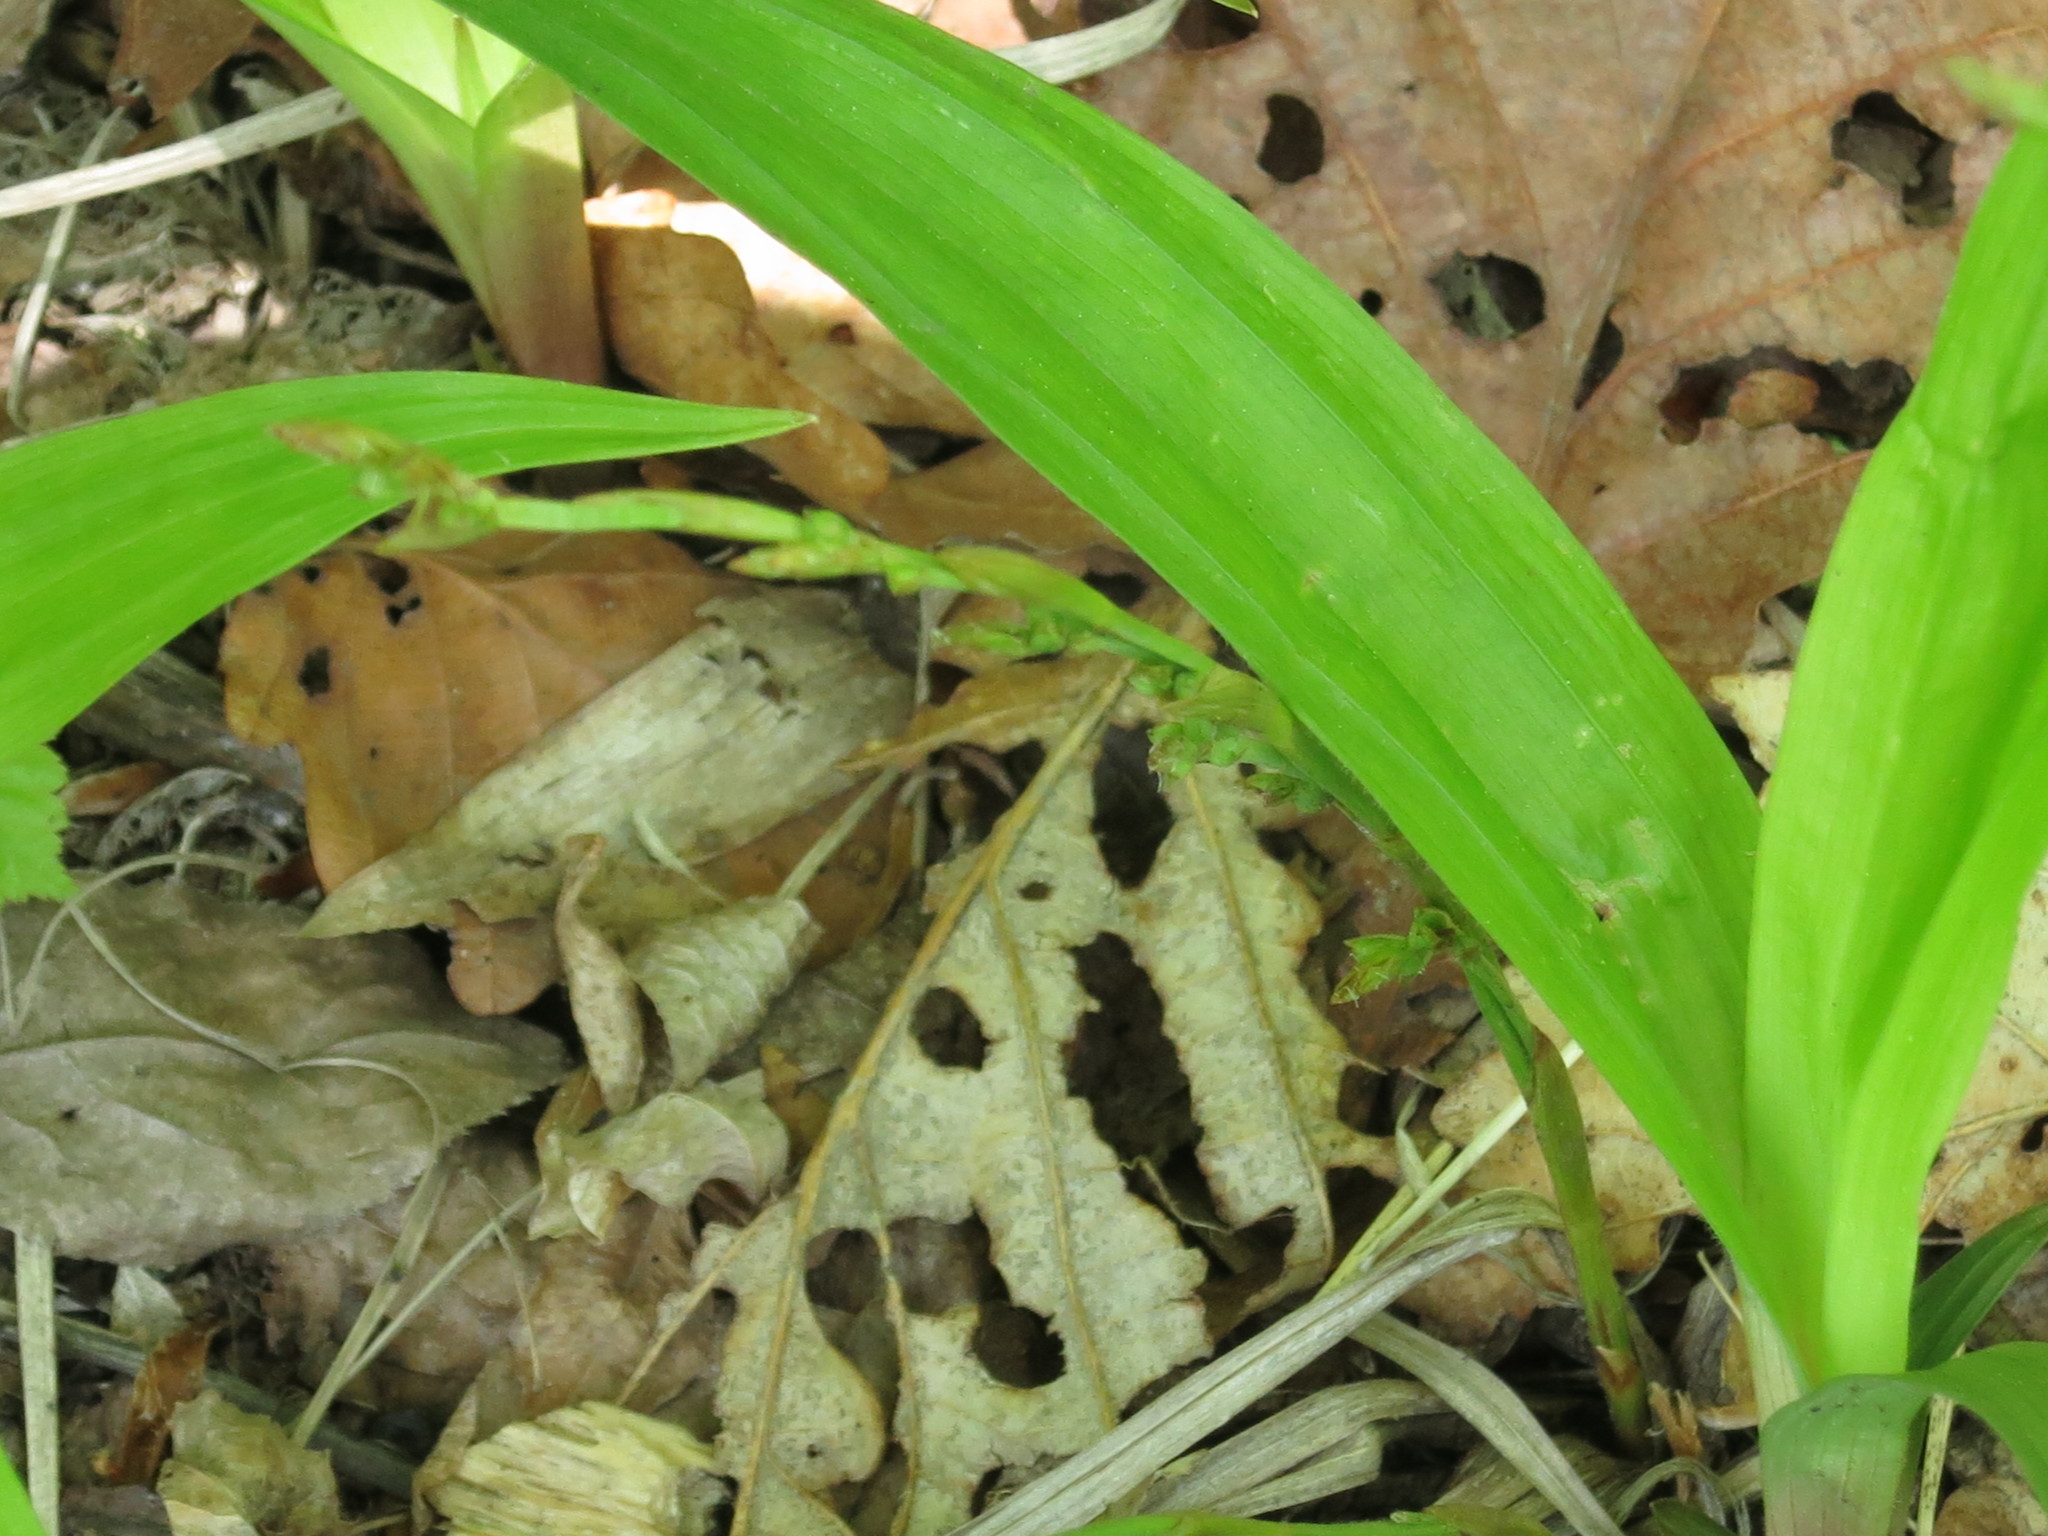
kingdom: Plantae
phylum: Tracheophyta
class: Liliopsida
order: Poales
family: Cyperaceae
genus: Carex
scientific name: Carex siderosticta
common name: Broadleaf sedge
